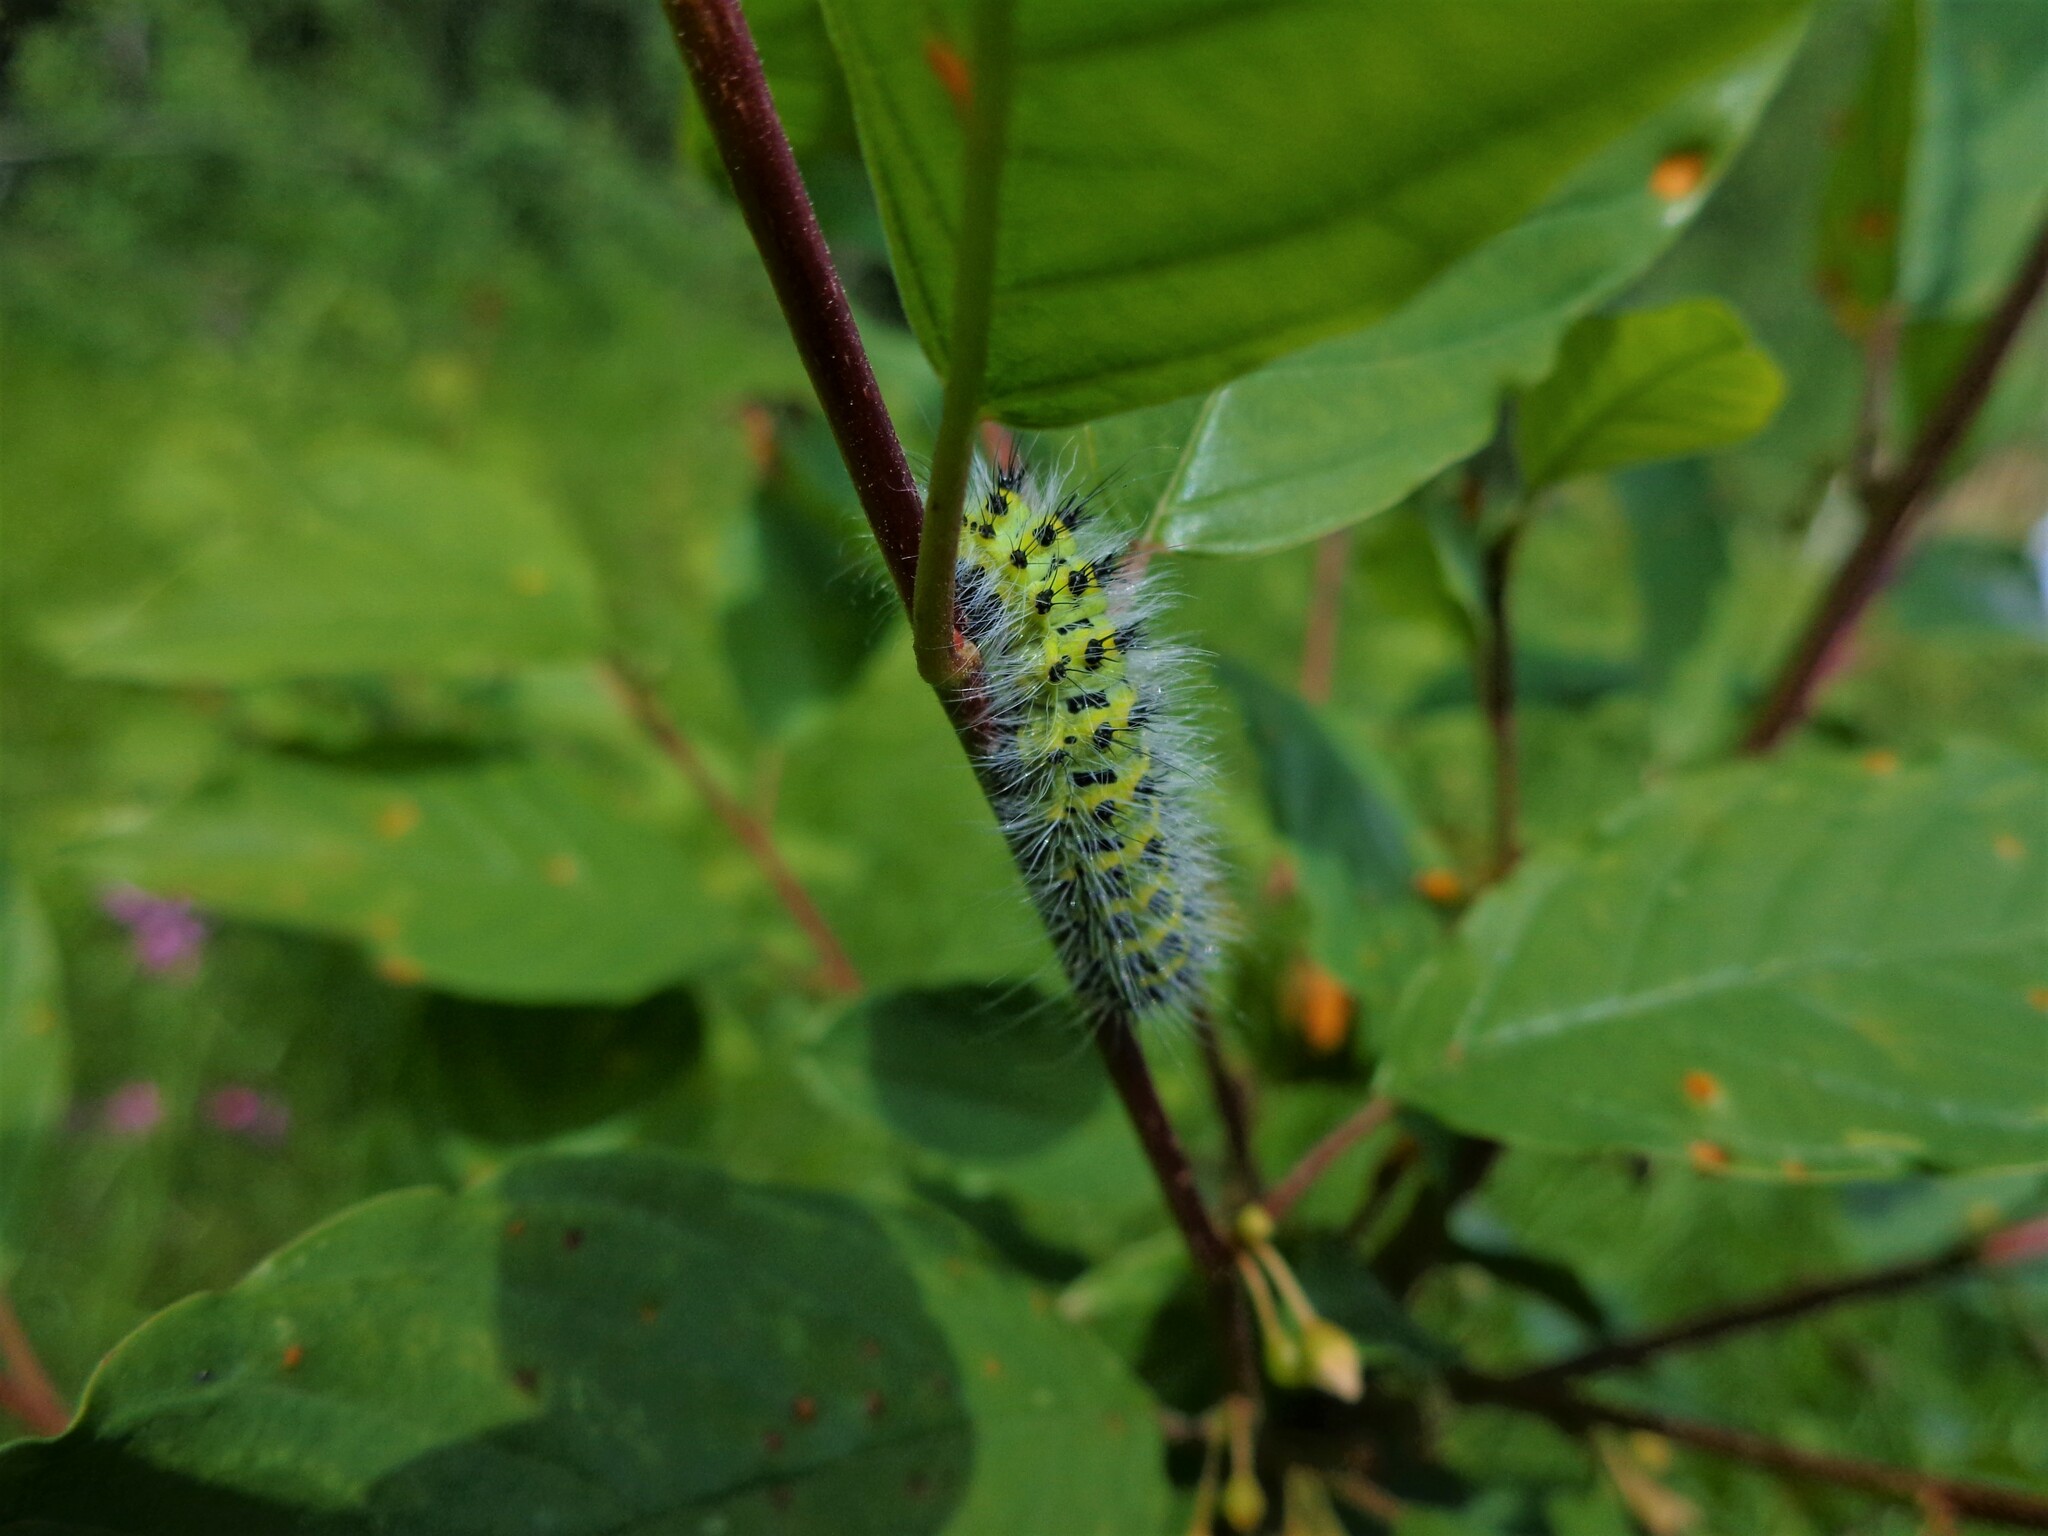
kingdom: Animalia
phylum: Arthropoda
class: Insecta
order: Lepidoptera
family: Saturniidae
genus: Saturnia
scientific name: Saturnia pavonia
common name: Emperor moth
